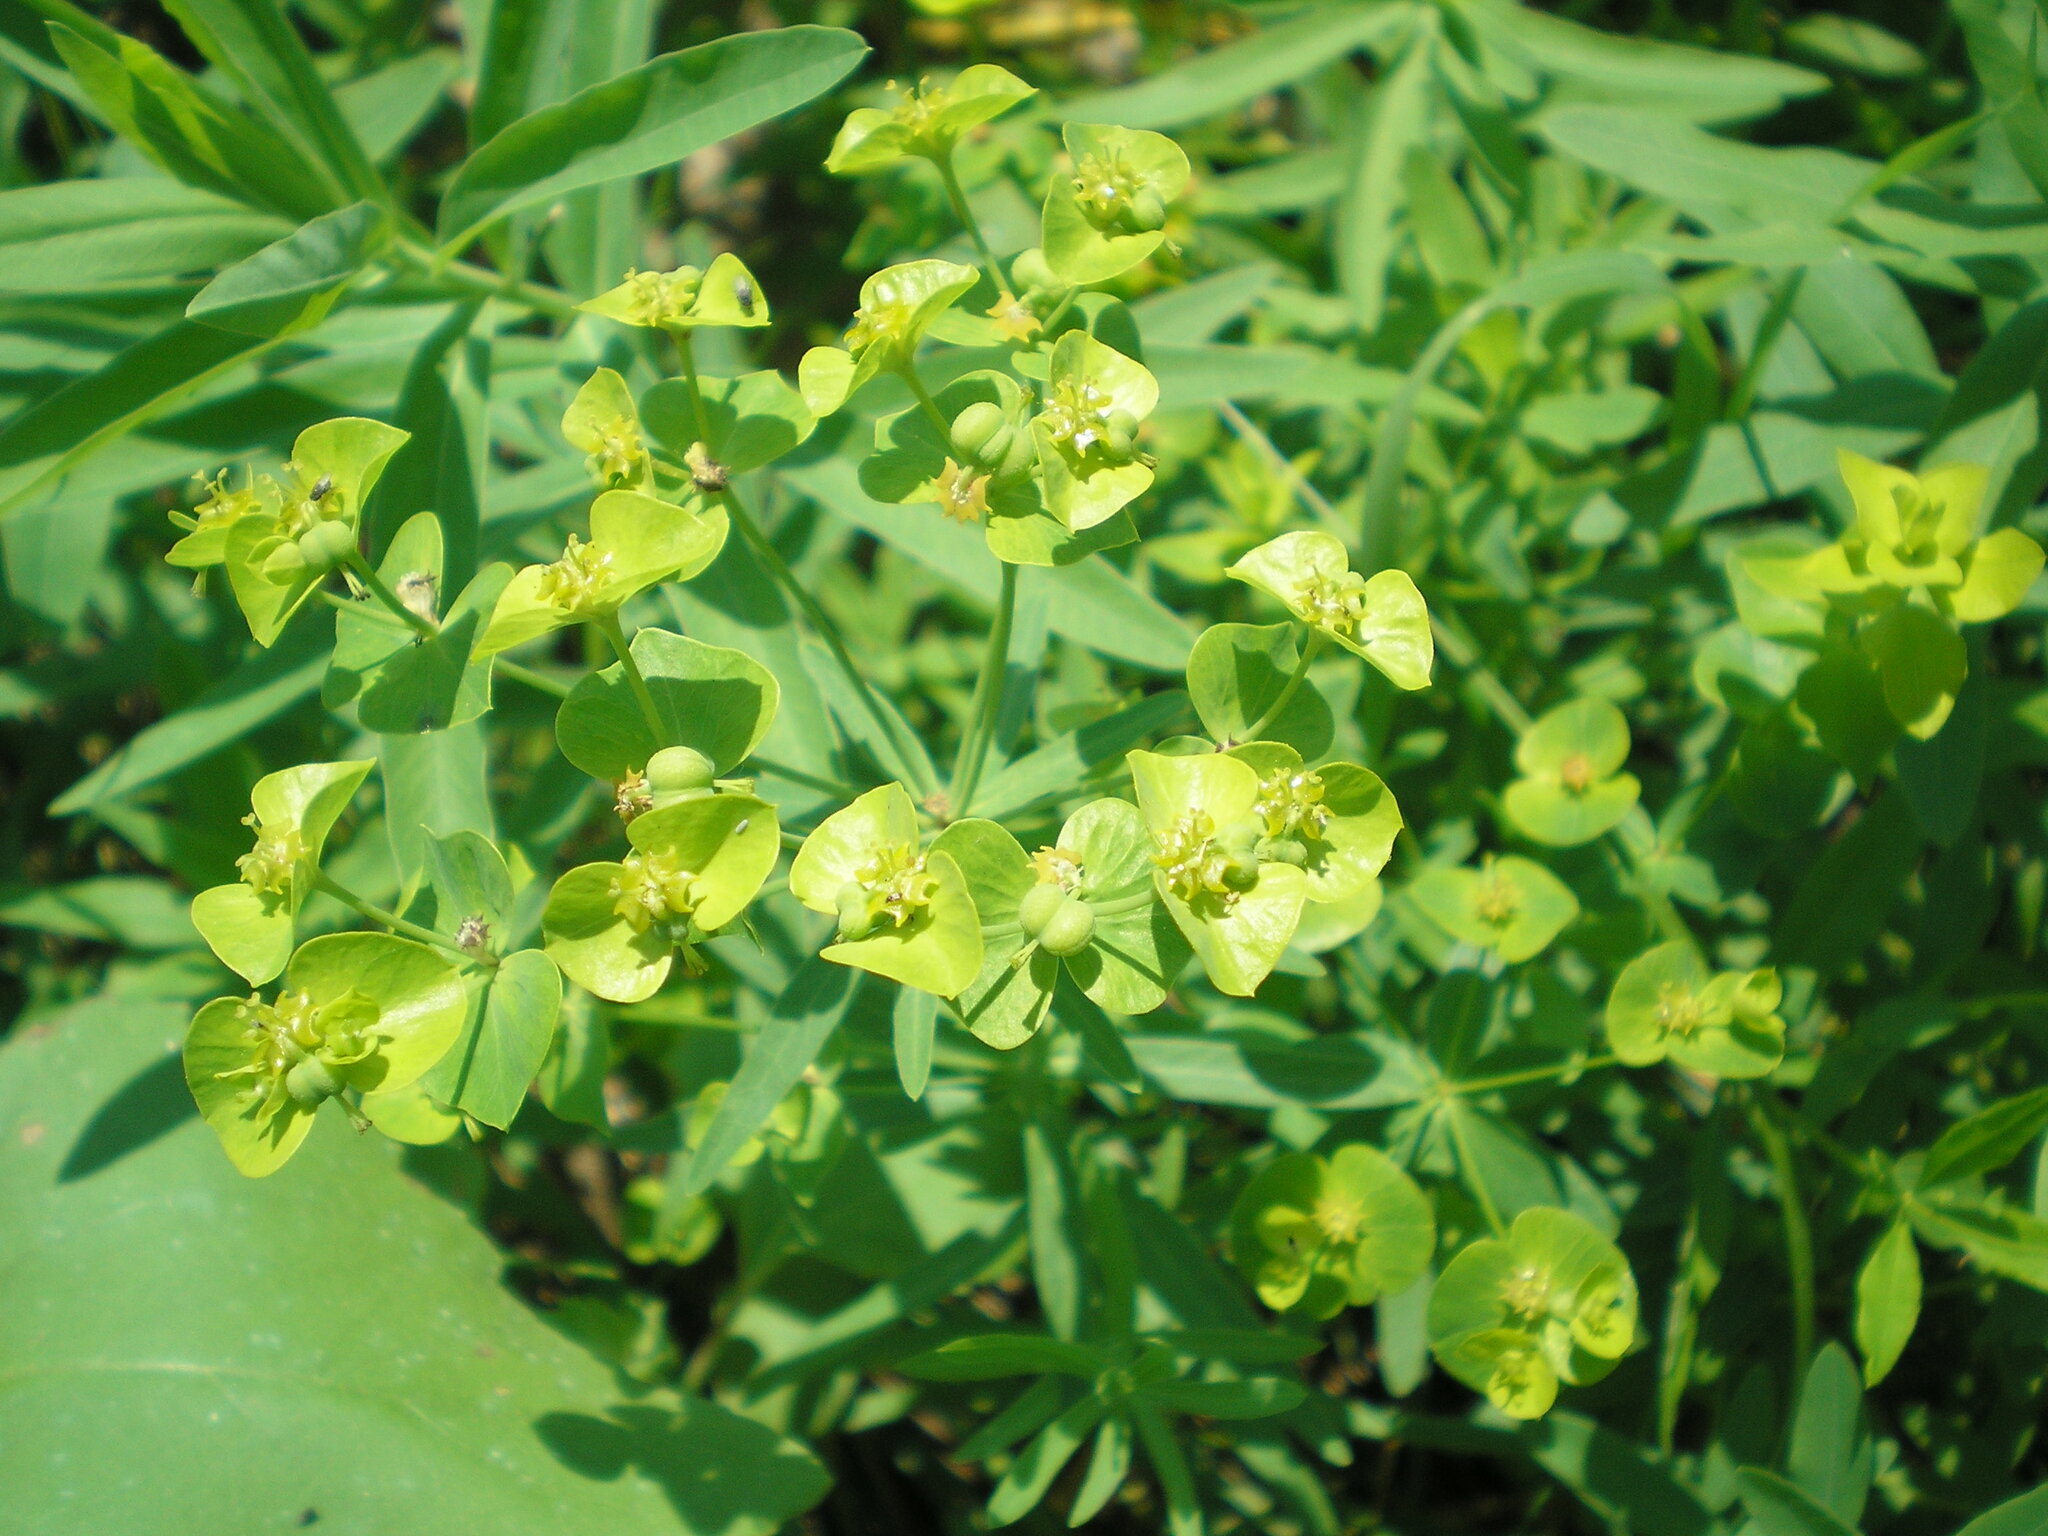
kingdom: Plantae
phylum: Tracheophyta
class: Magnoliopsida
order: Malpighiales
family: Euphorbiaceae
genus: Euphorbia
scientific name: Euphorbia virgata
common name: Leafy spurge
